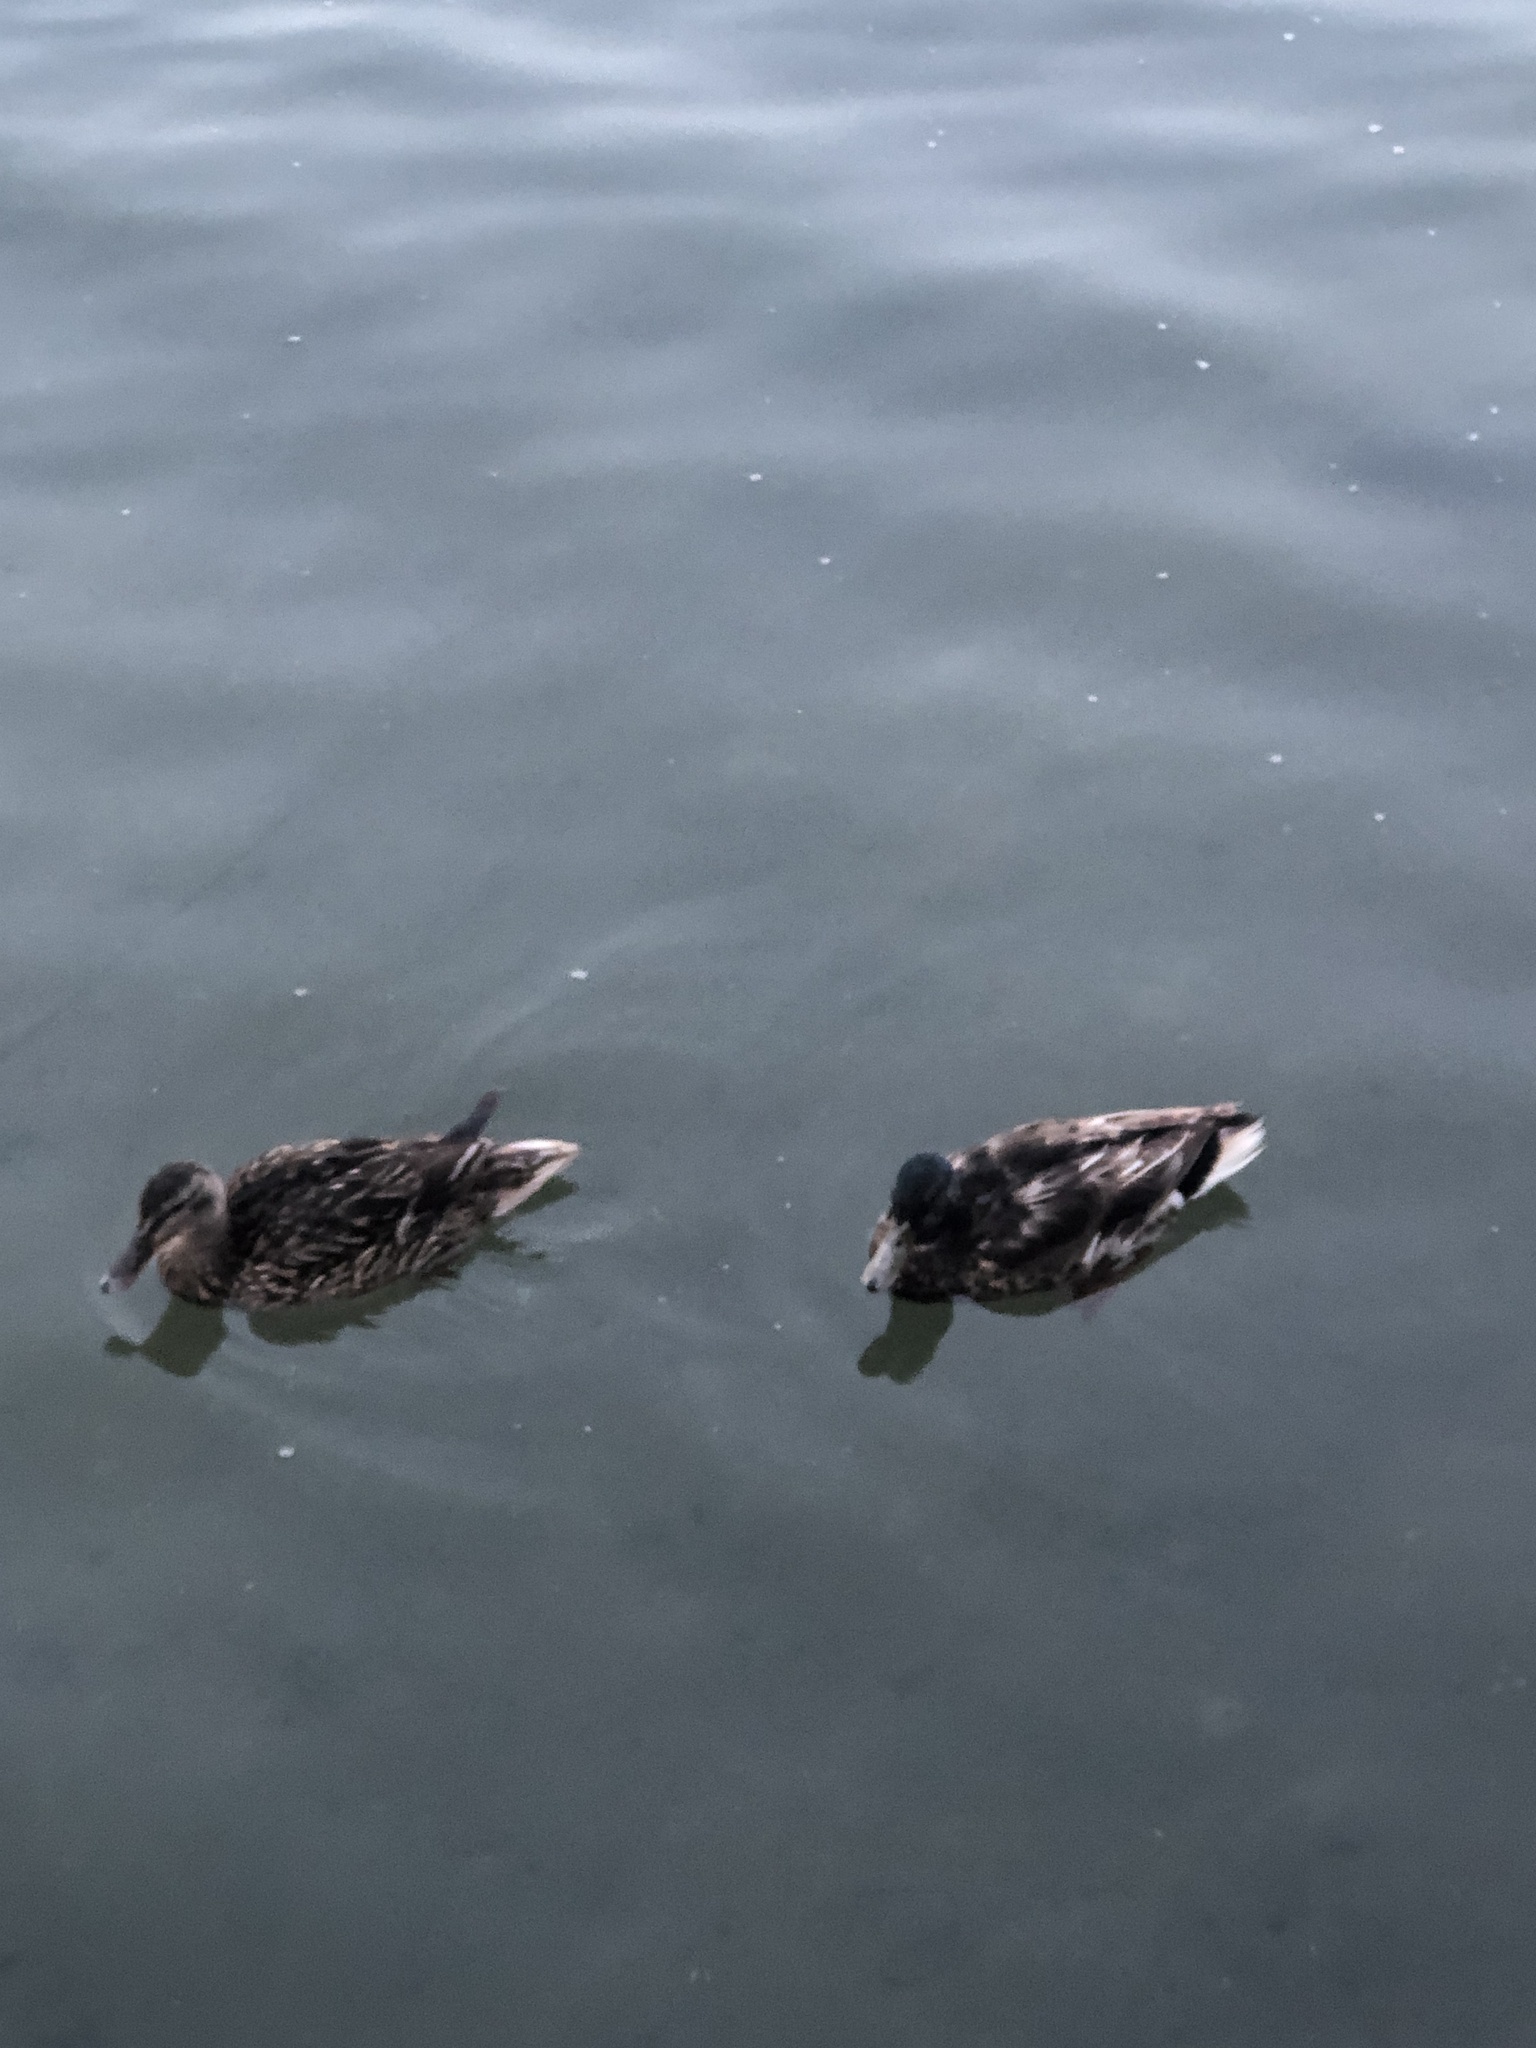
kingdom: Animalia
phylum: Chordata
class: Aves
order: Anseriformes
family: Anatidae
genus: Anas
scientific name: Anas platyrhynchos
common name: Mallard
